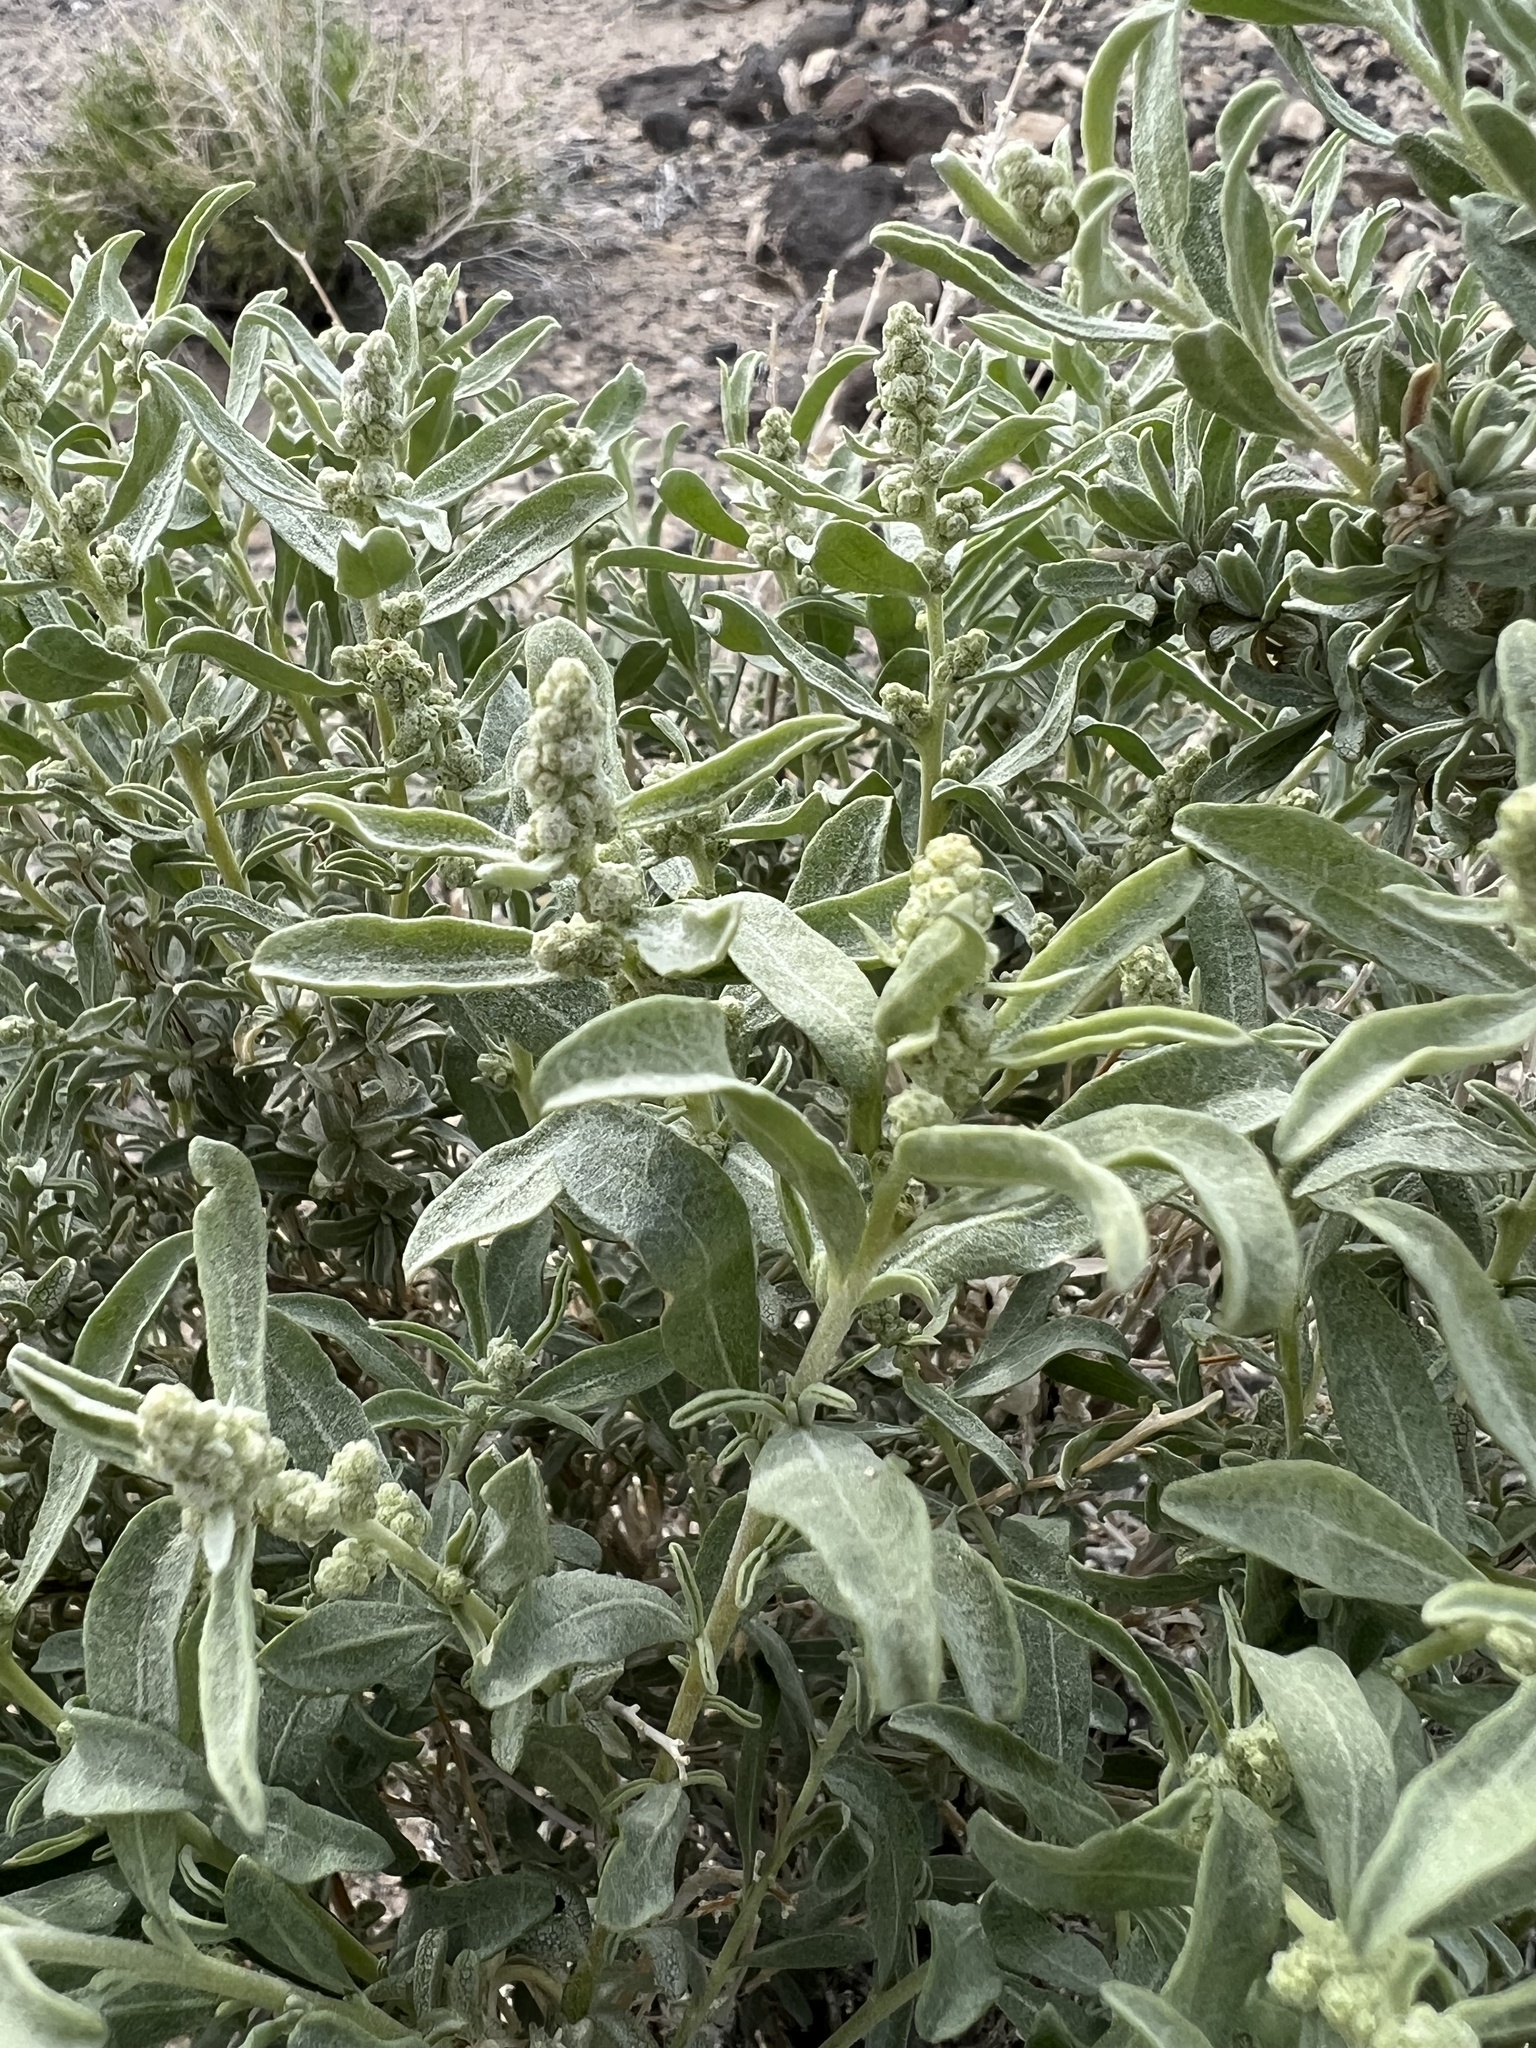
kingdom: Plantae
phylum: Tracheophyta
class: Magnoliopsida
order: Caryophyllales
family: Amaranthaceae
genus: Atriplex
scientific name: Atriplex canescens
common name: Four-wing saltbush
